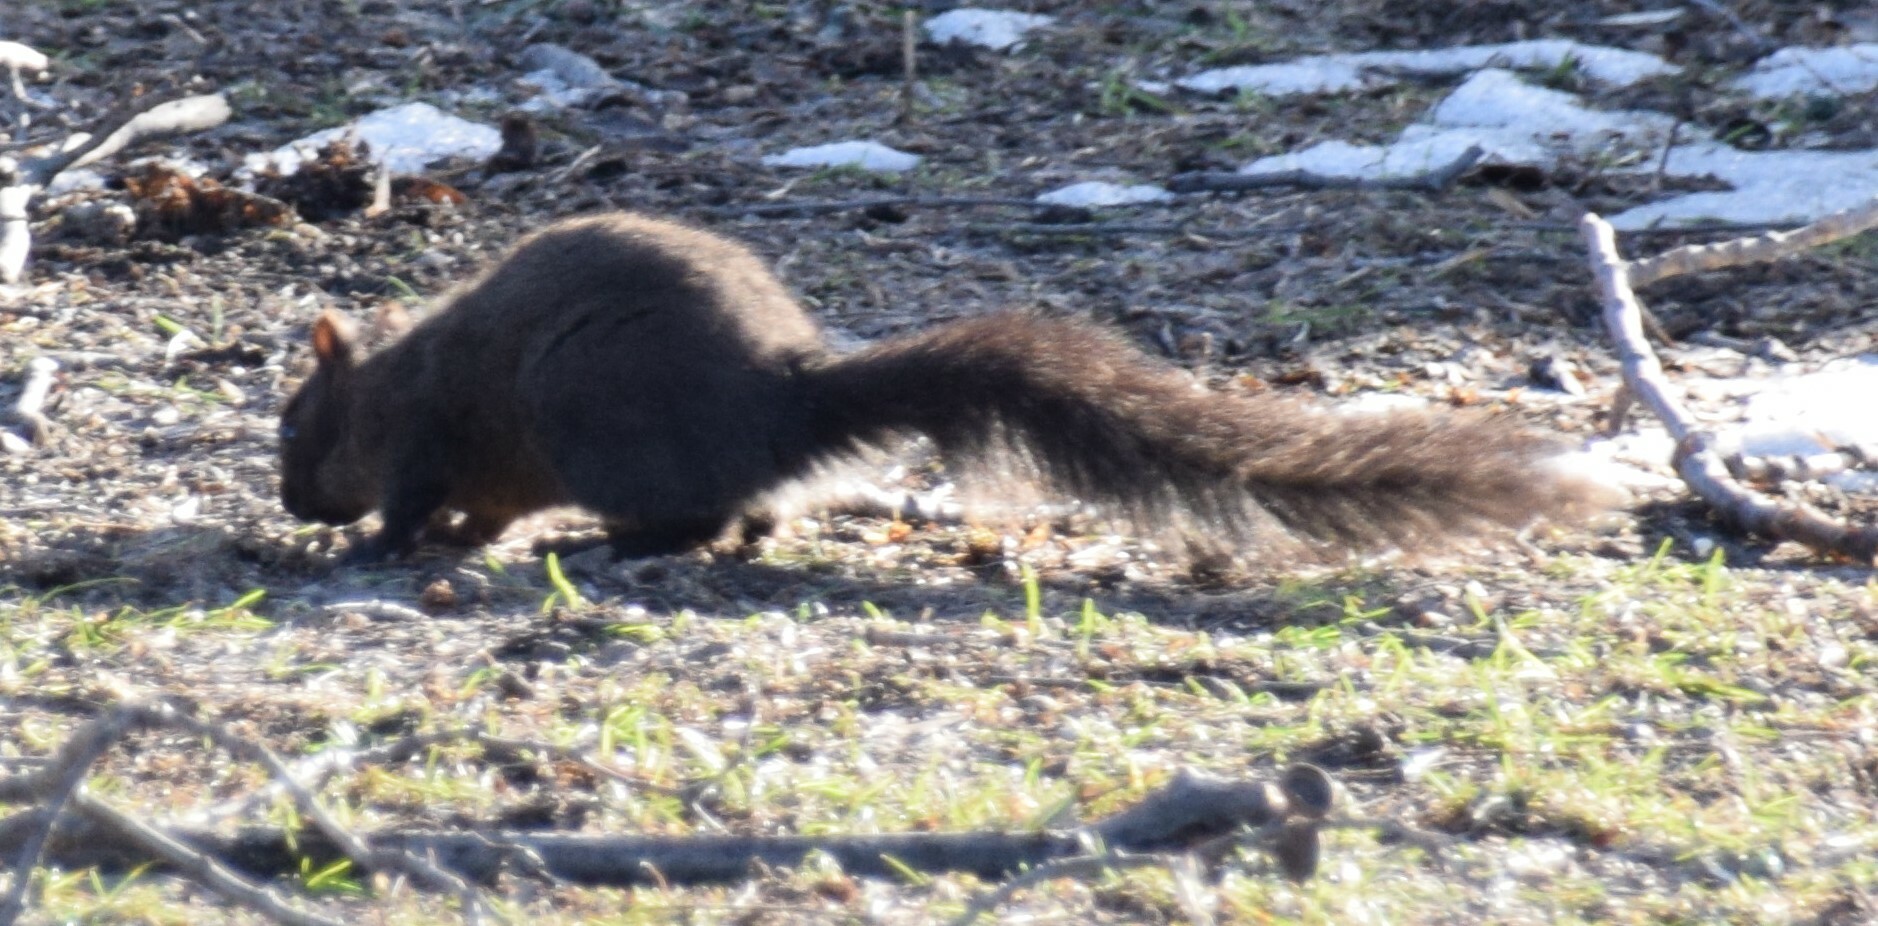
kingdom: Animalia
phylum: Chordata
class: Mammalia
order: Rodentia
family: Sciuridae
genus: Sciurus
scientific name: Sciurus carolinensis
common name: Eastern gray squirrel
